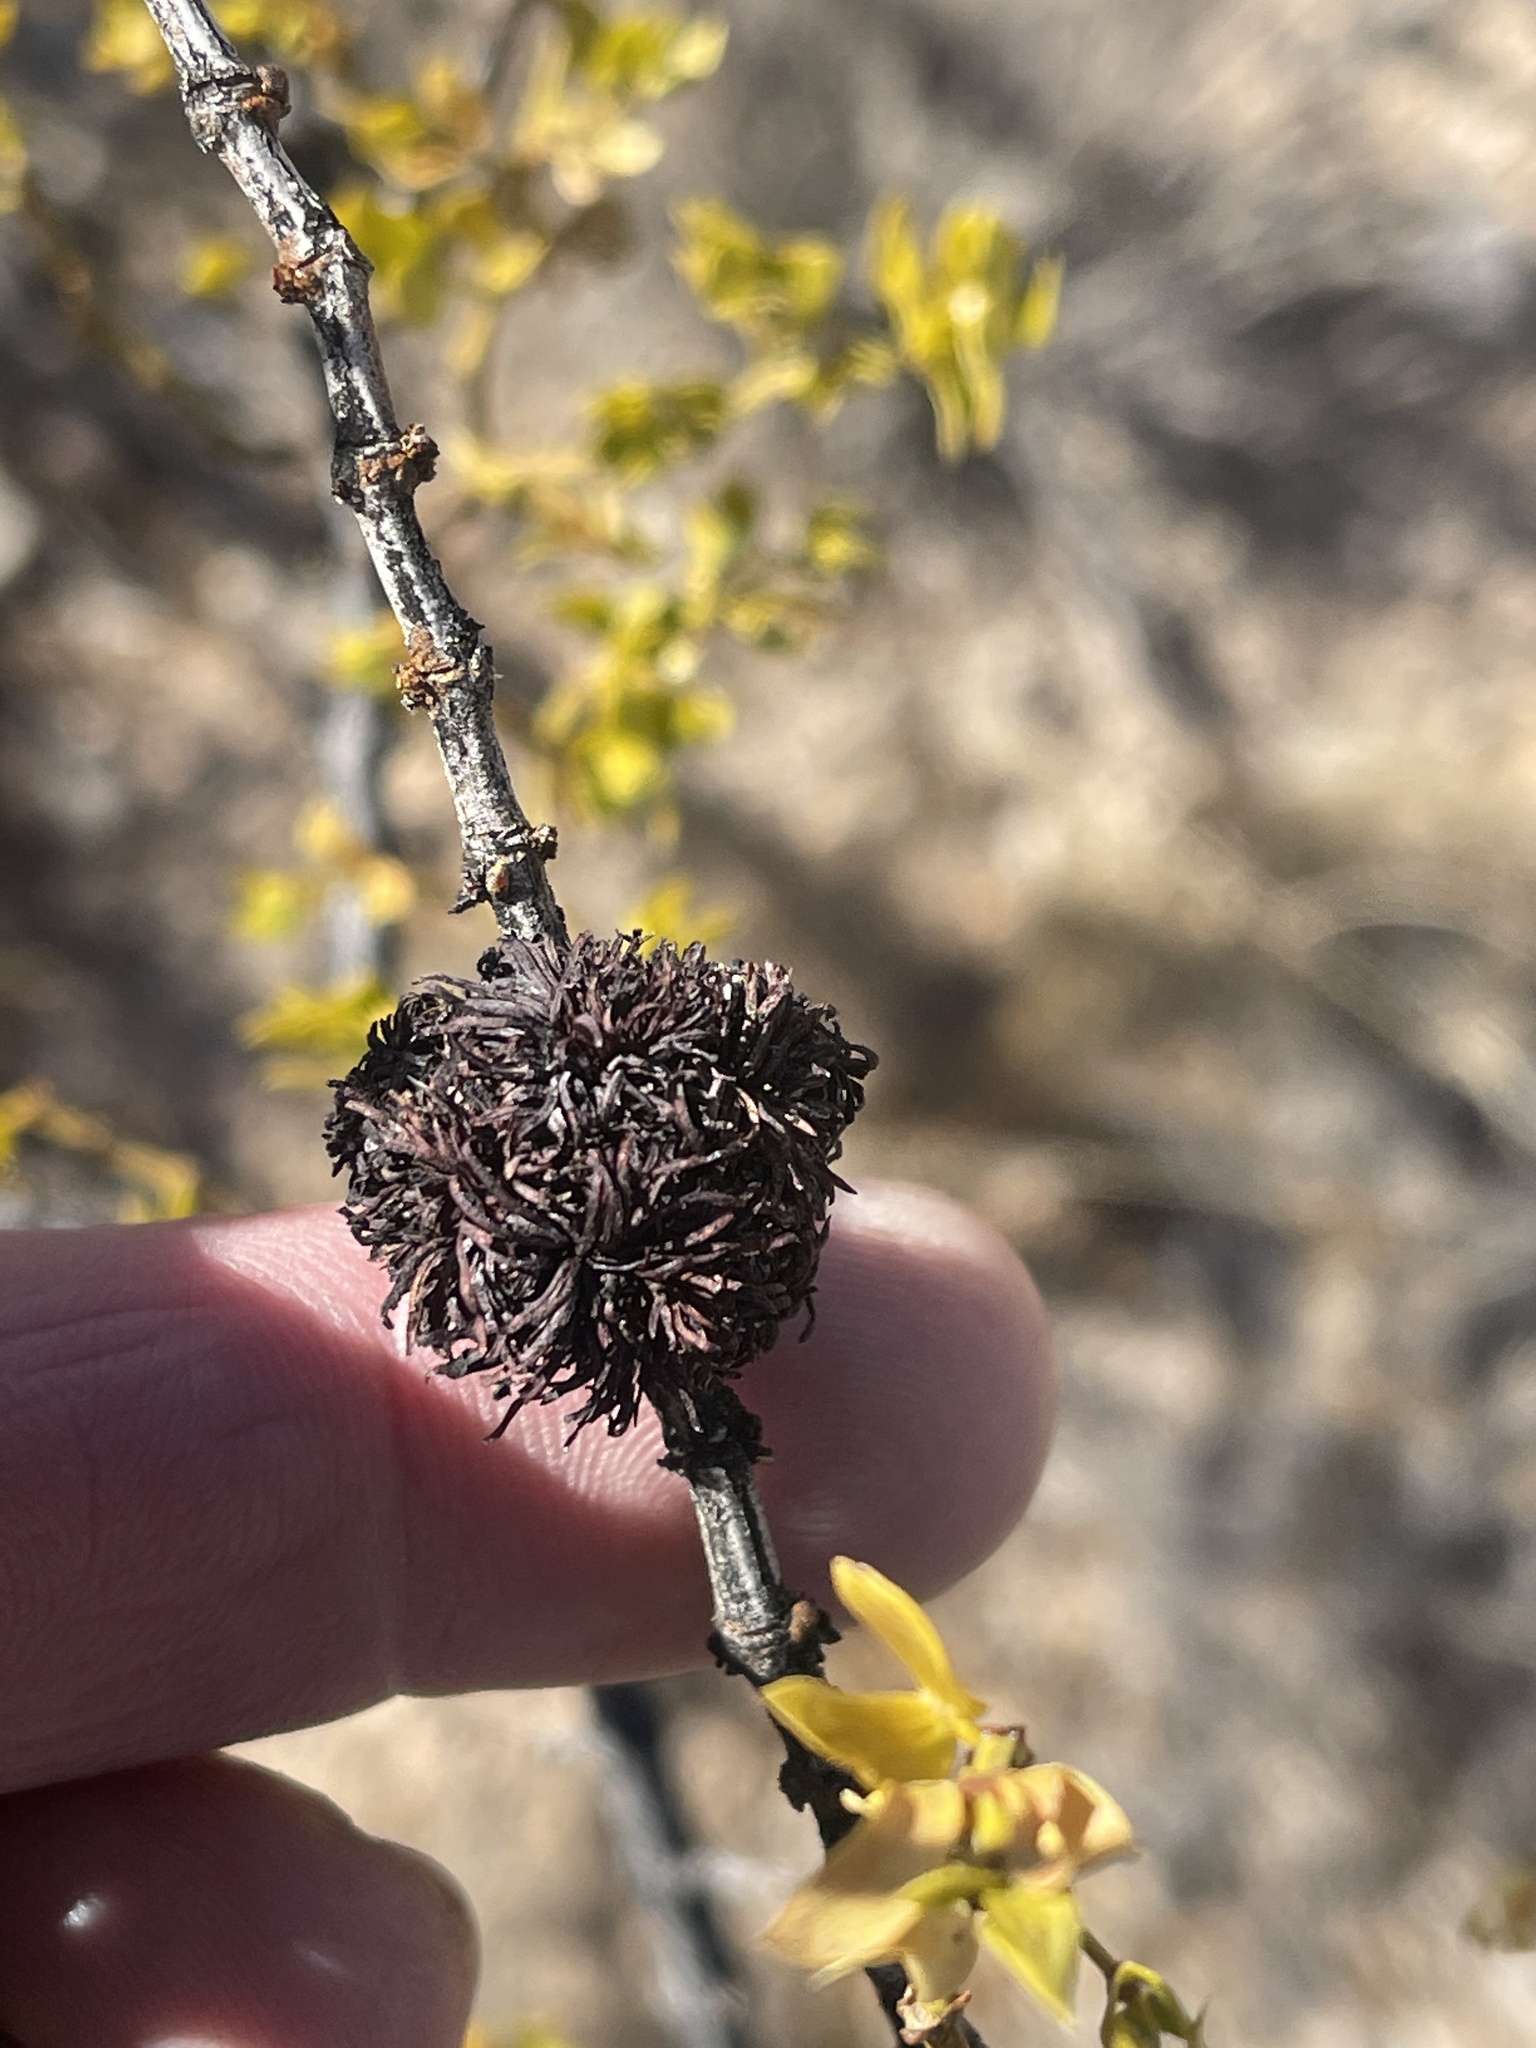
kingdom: Animalia
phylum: Arthropoda
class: Insecta
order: Diptera
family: Cecidomyiidae
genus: Asphondylia
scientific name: Asphondylia auripila
